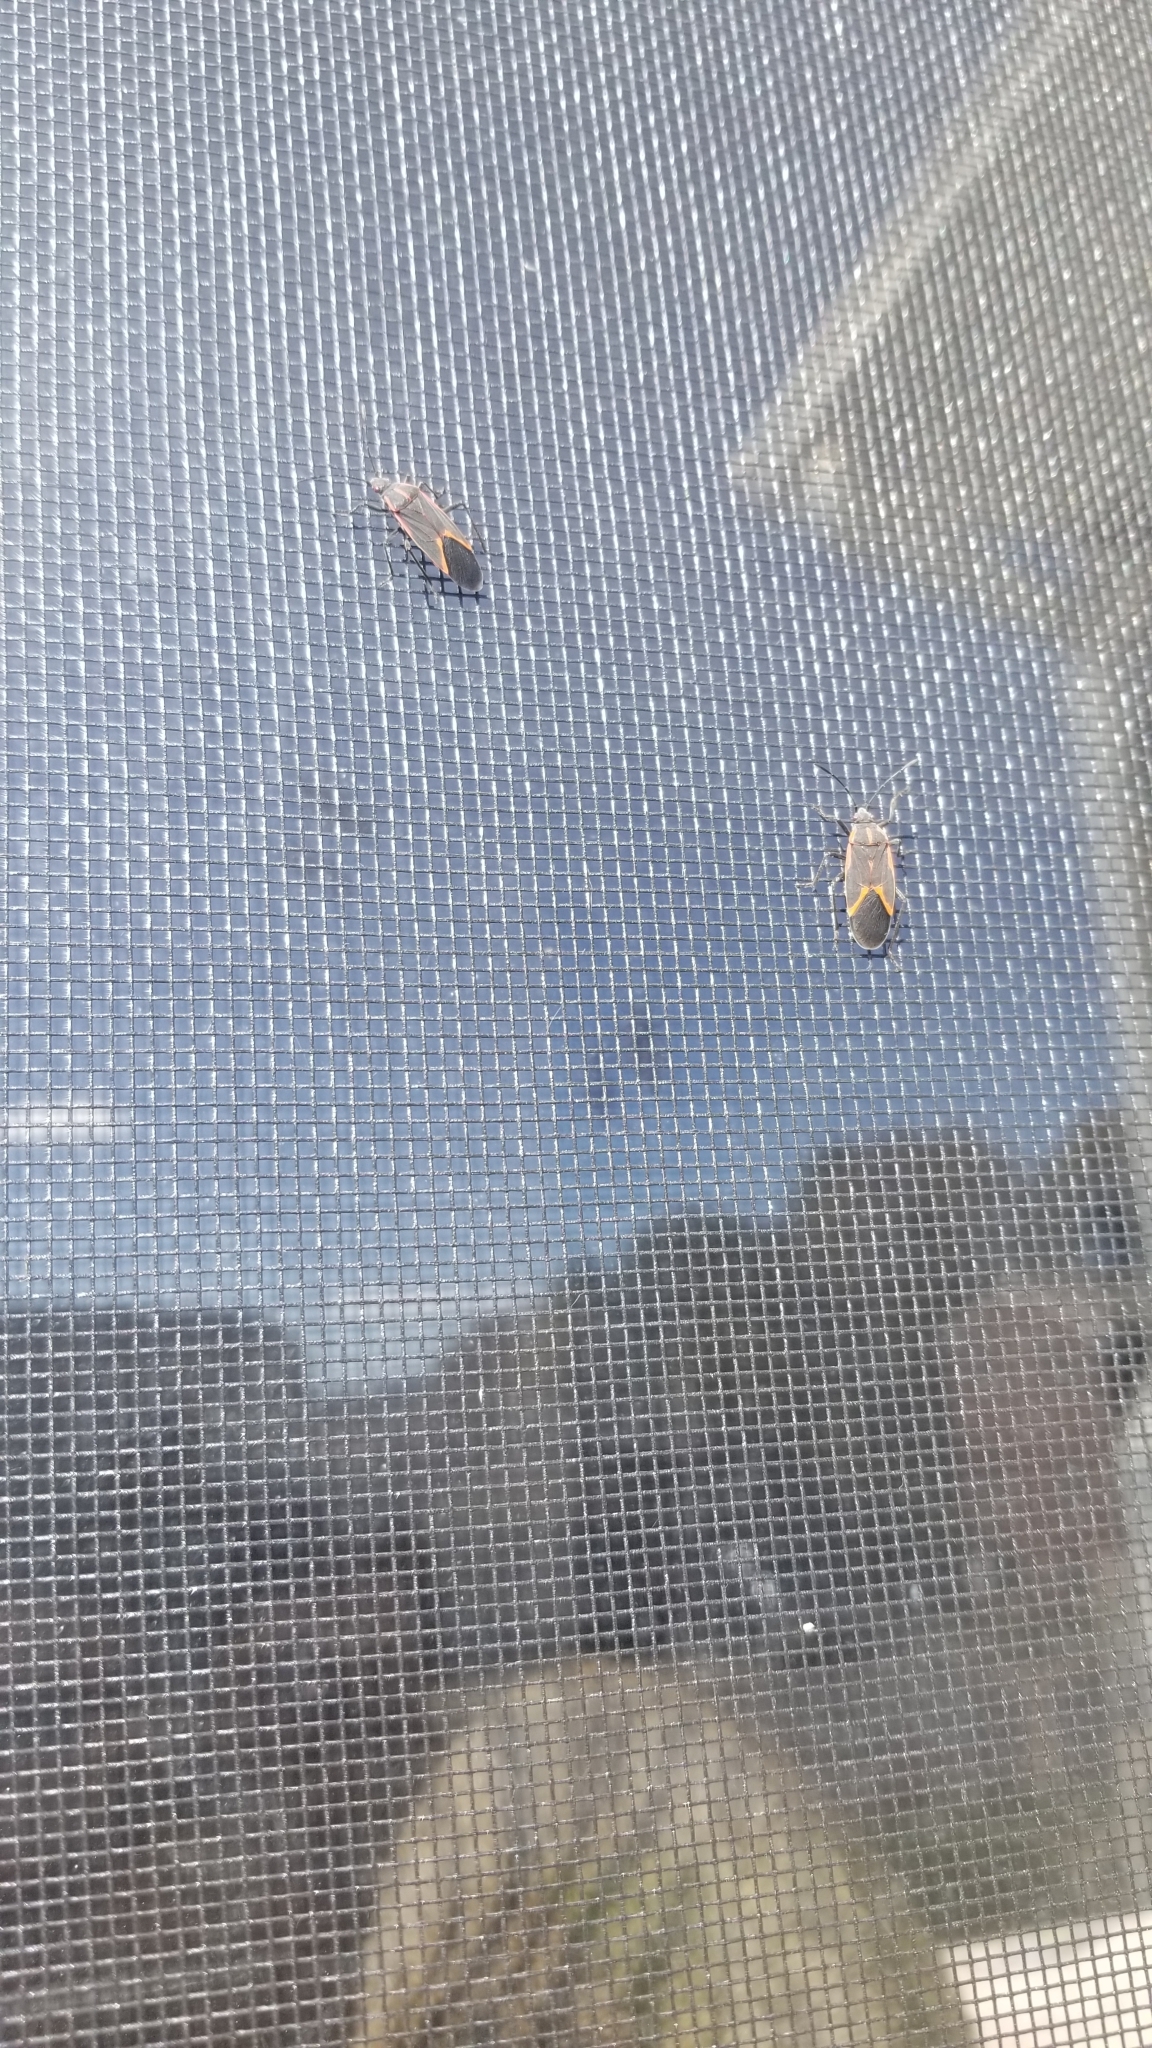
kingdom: Animalia
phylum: Arthropoda
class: Insecta
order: Hemiptera
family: Rhopalidae
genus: Boisea
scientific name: Boisea trivittata
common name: Boxelder bug
